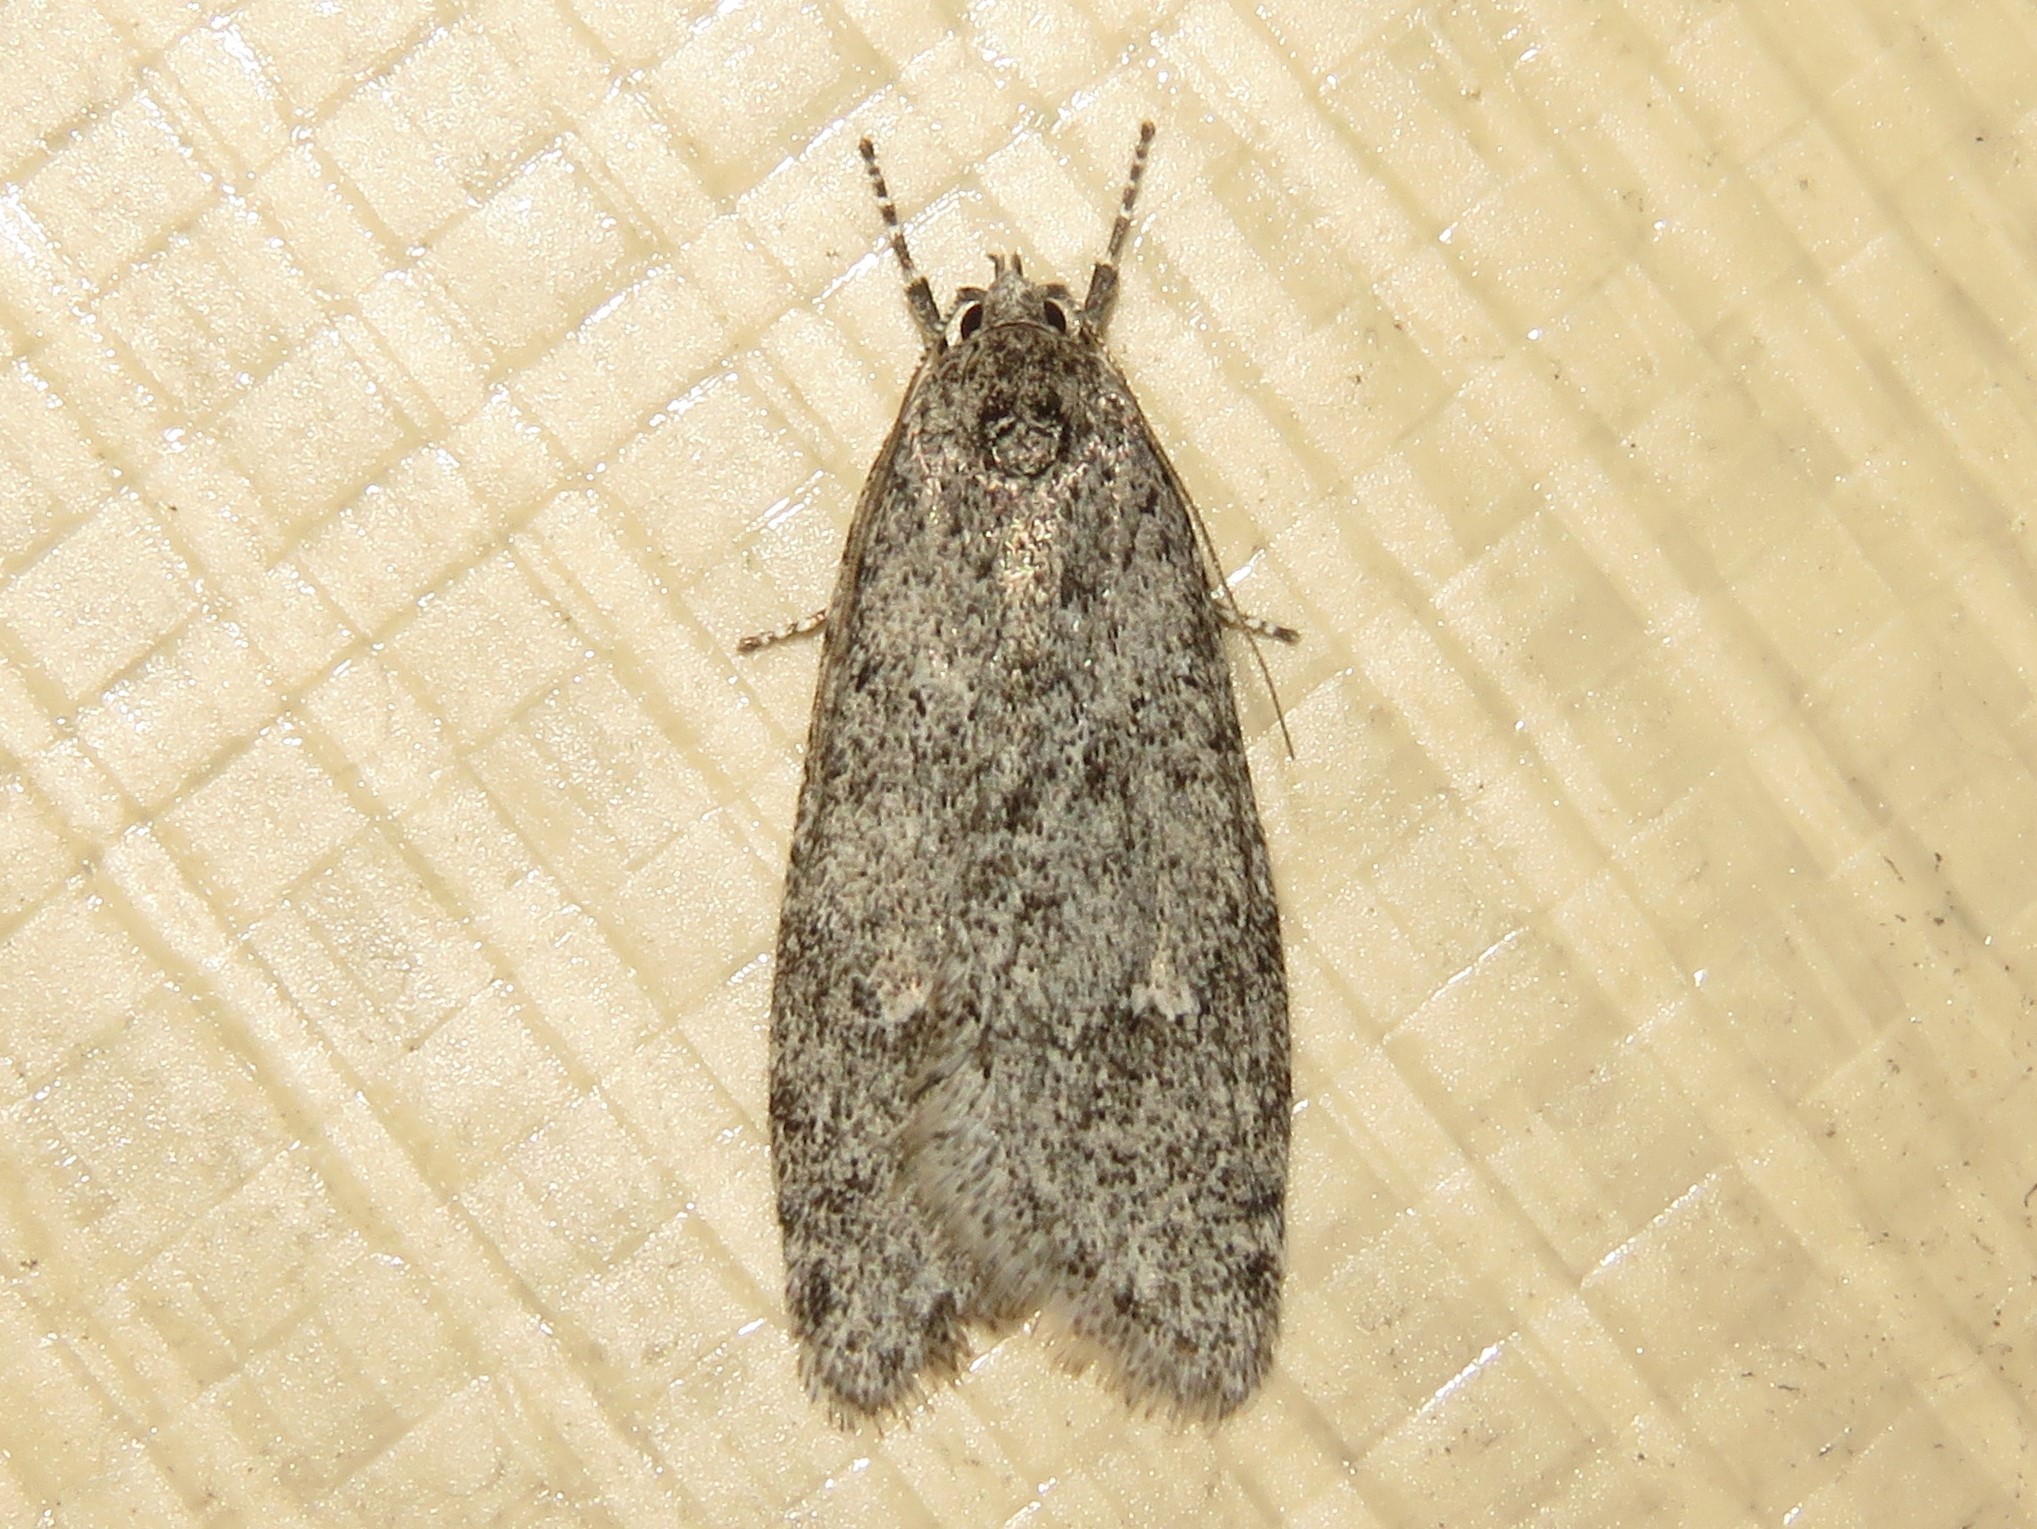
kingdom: Animalia
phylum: Arthropoda
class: Insecta
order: Lepidoptera
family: Depressariidae
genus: Semioscopis
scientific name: Semioscopis inornata
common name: Poplar micromoth
